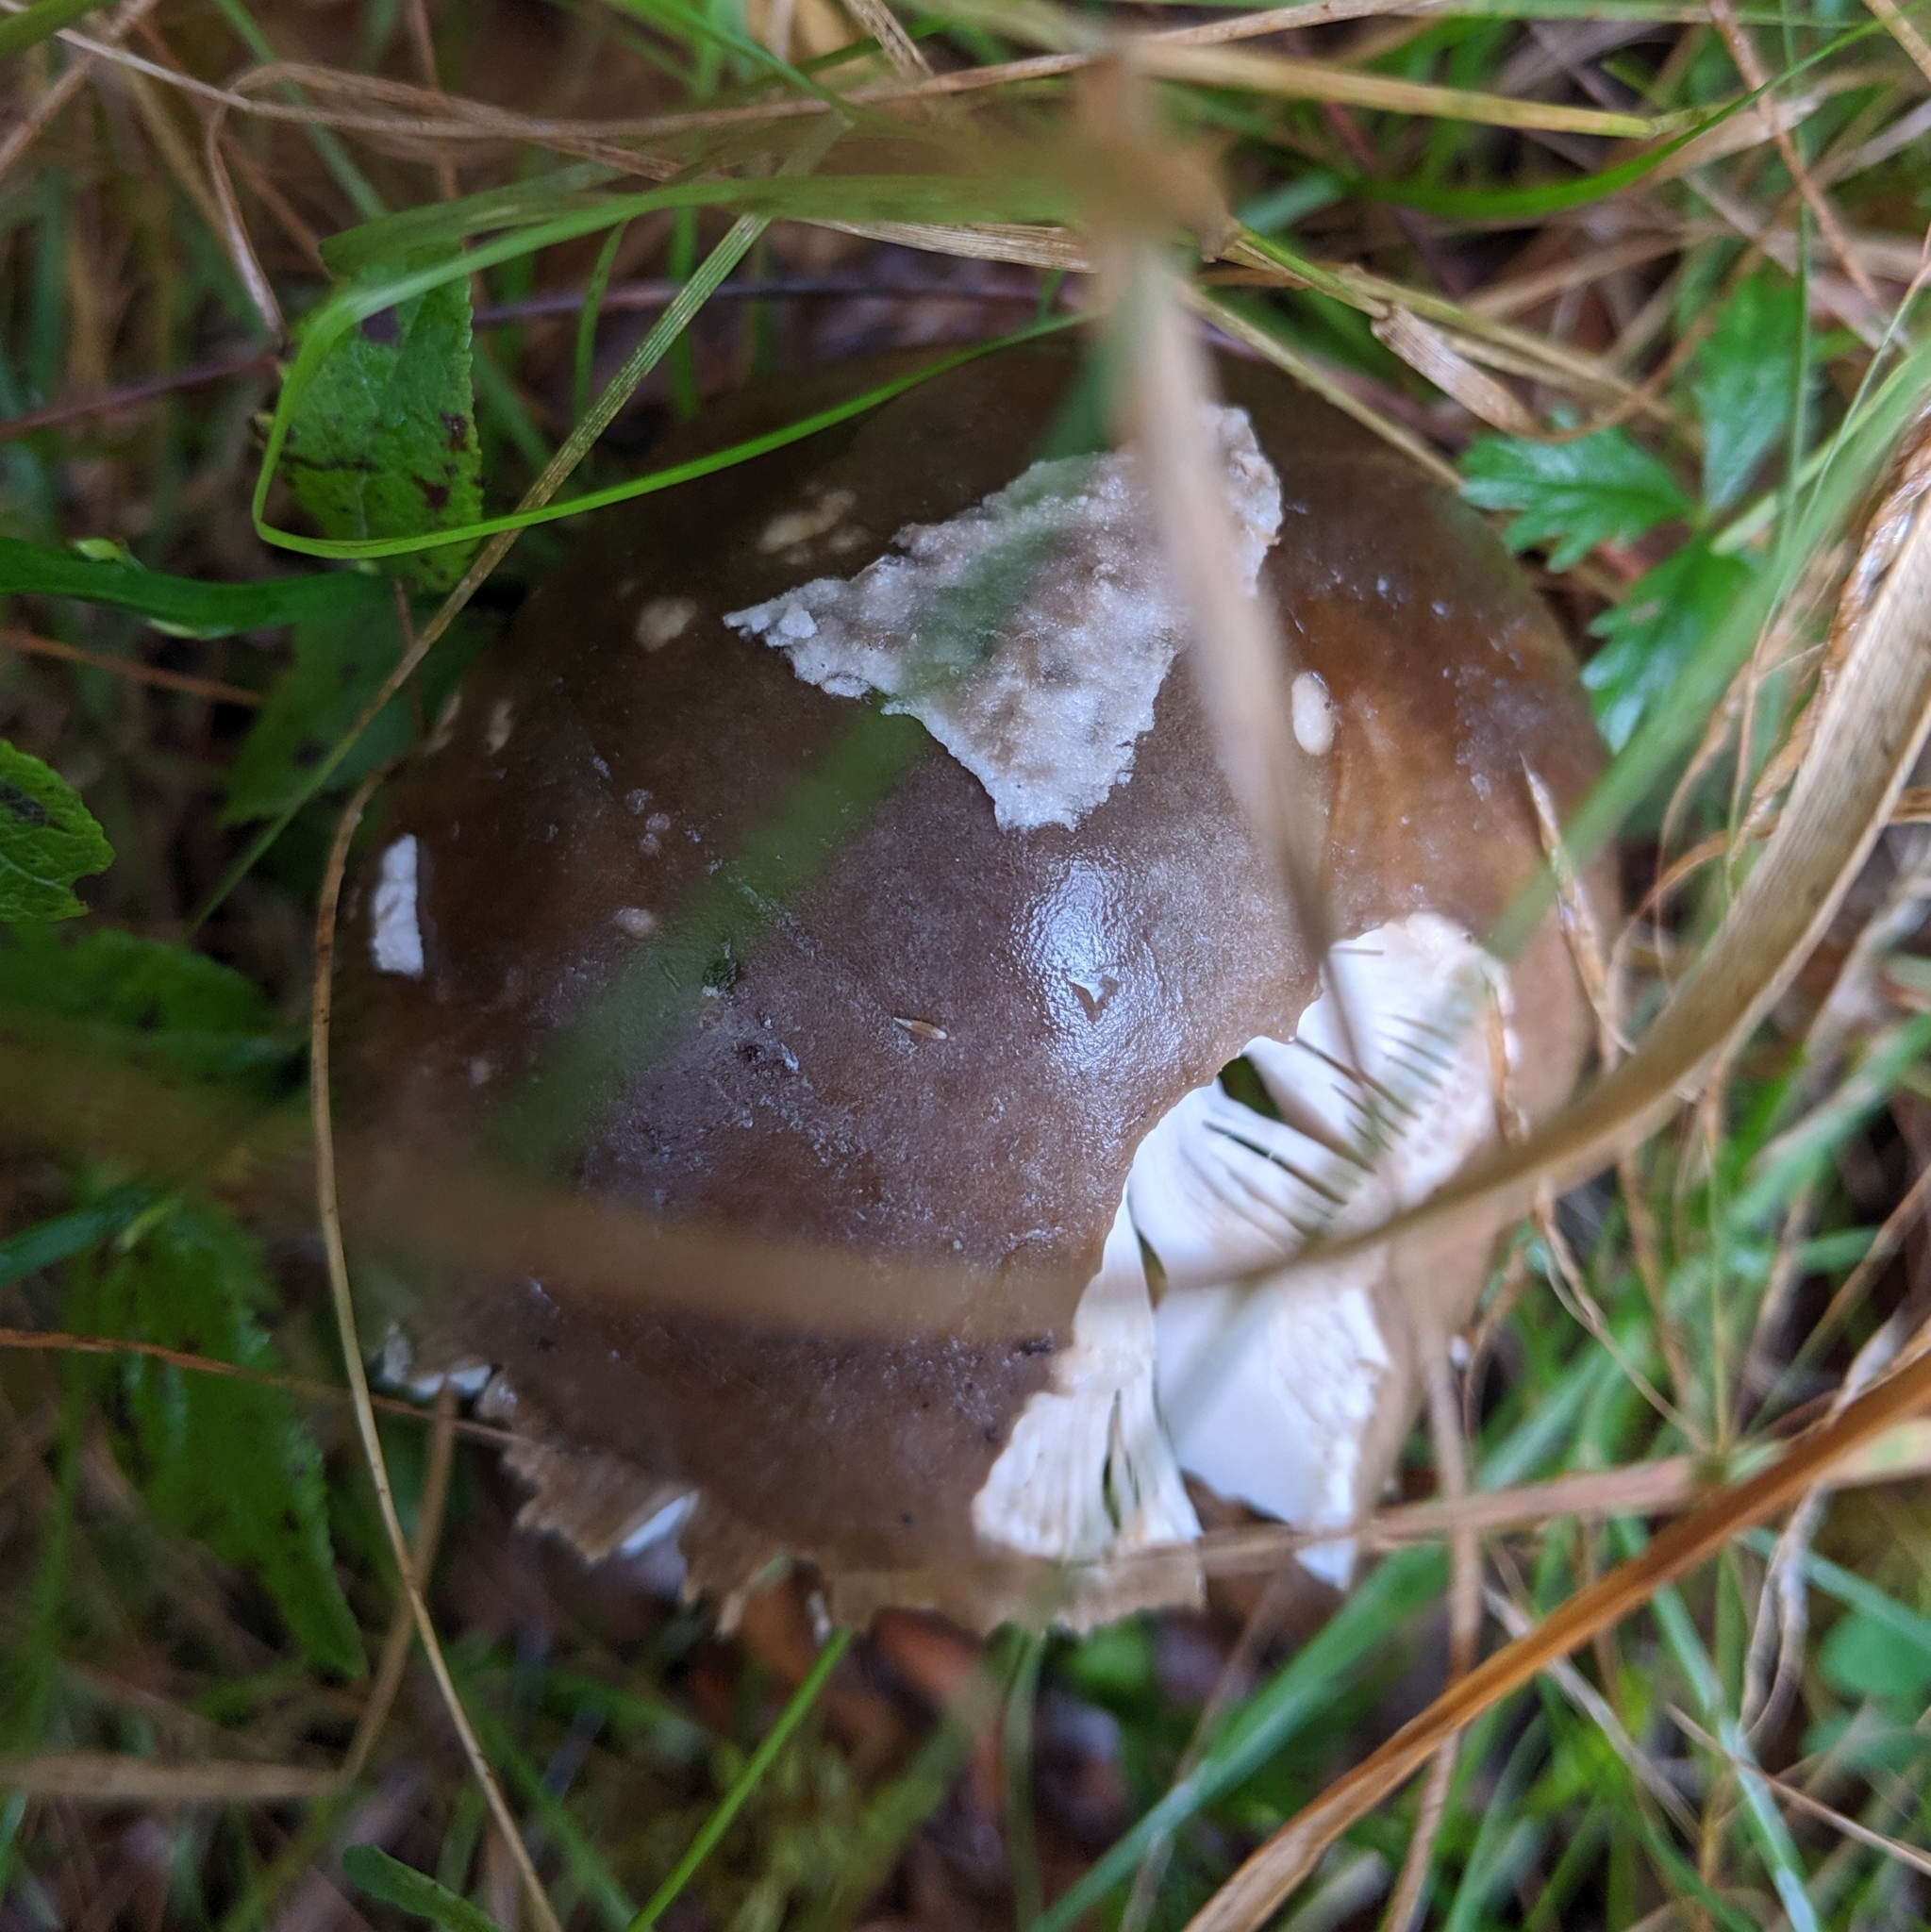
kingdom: Fungi
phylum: Basidiomycota
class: Agaricomycetes
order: Agaricales
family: Amanitaceae
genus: Amanita
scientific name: Amanita vaginata
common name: Grisette
